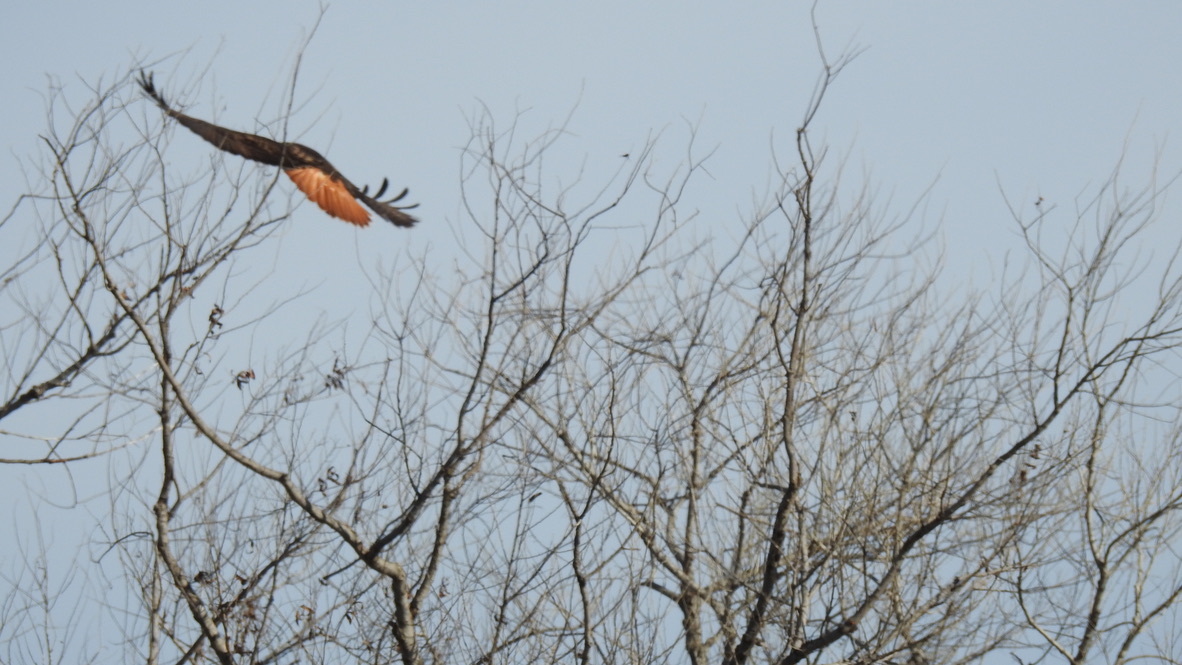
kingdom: Animalia
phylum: Chordata
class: Aves
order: Accipitriformes
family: Accipitridae
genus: Buteo
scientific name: Buteo jamaicensis
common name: Red-tailed hawk
